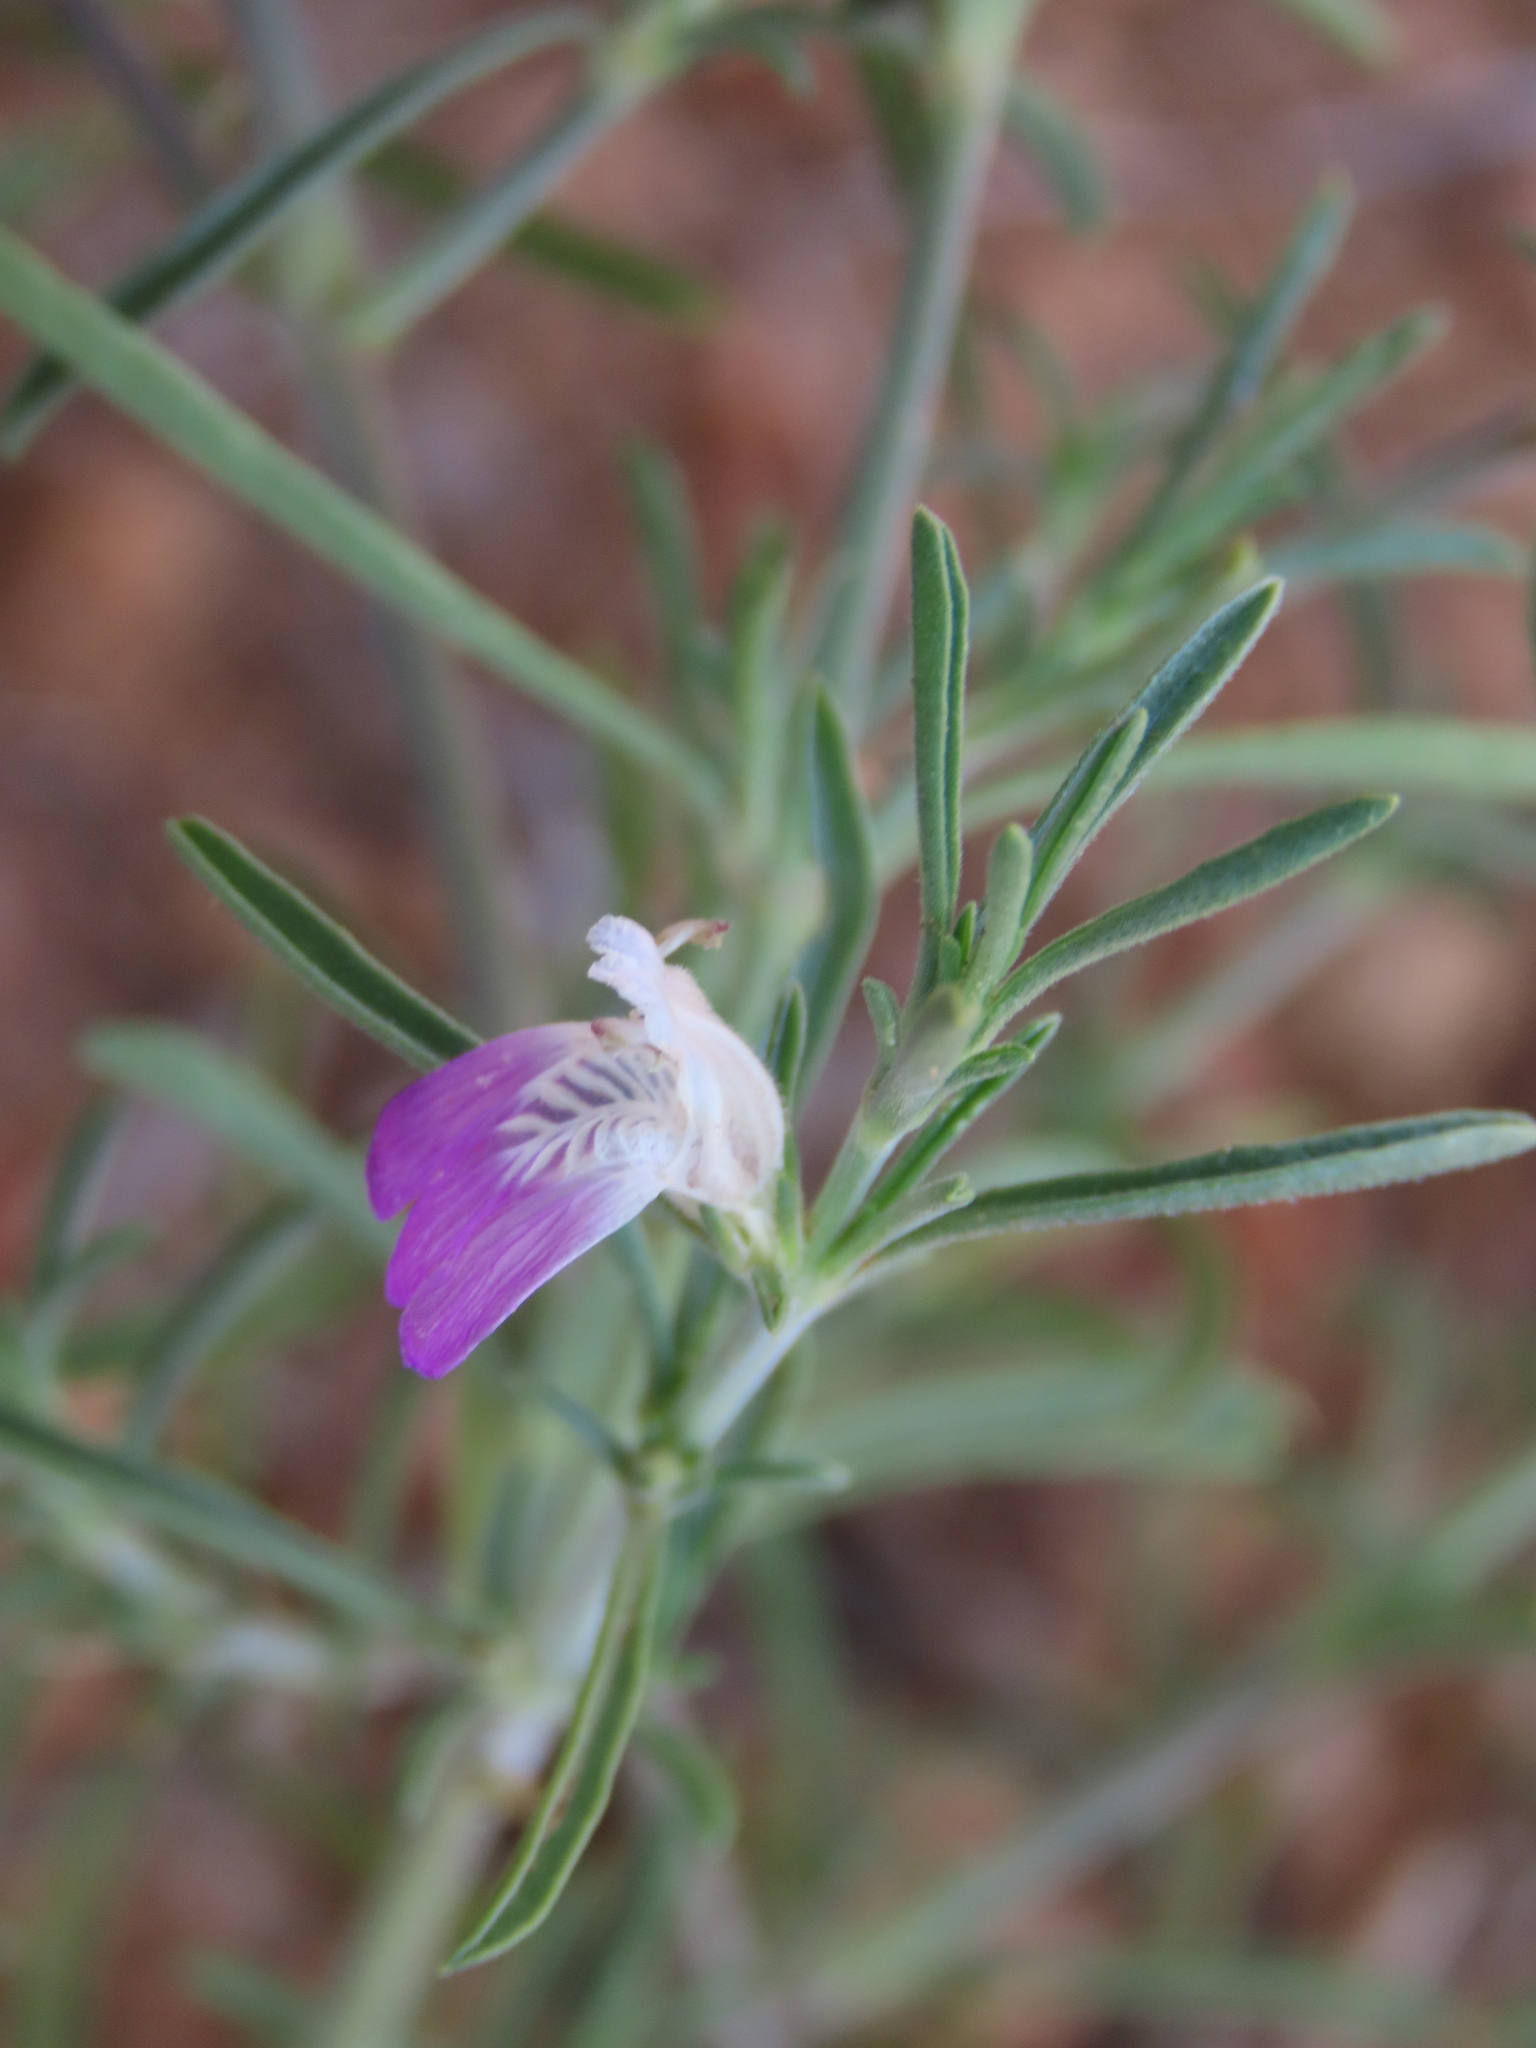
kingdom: Plantae
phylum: Tracheophyta
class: Magnoliopsida
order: Lamiales
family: Acanthaceae
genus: Pogonospermum
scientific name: Pogonospermum
